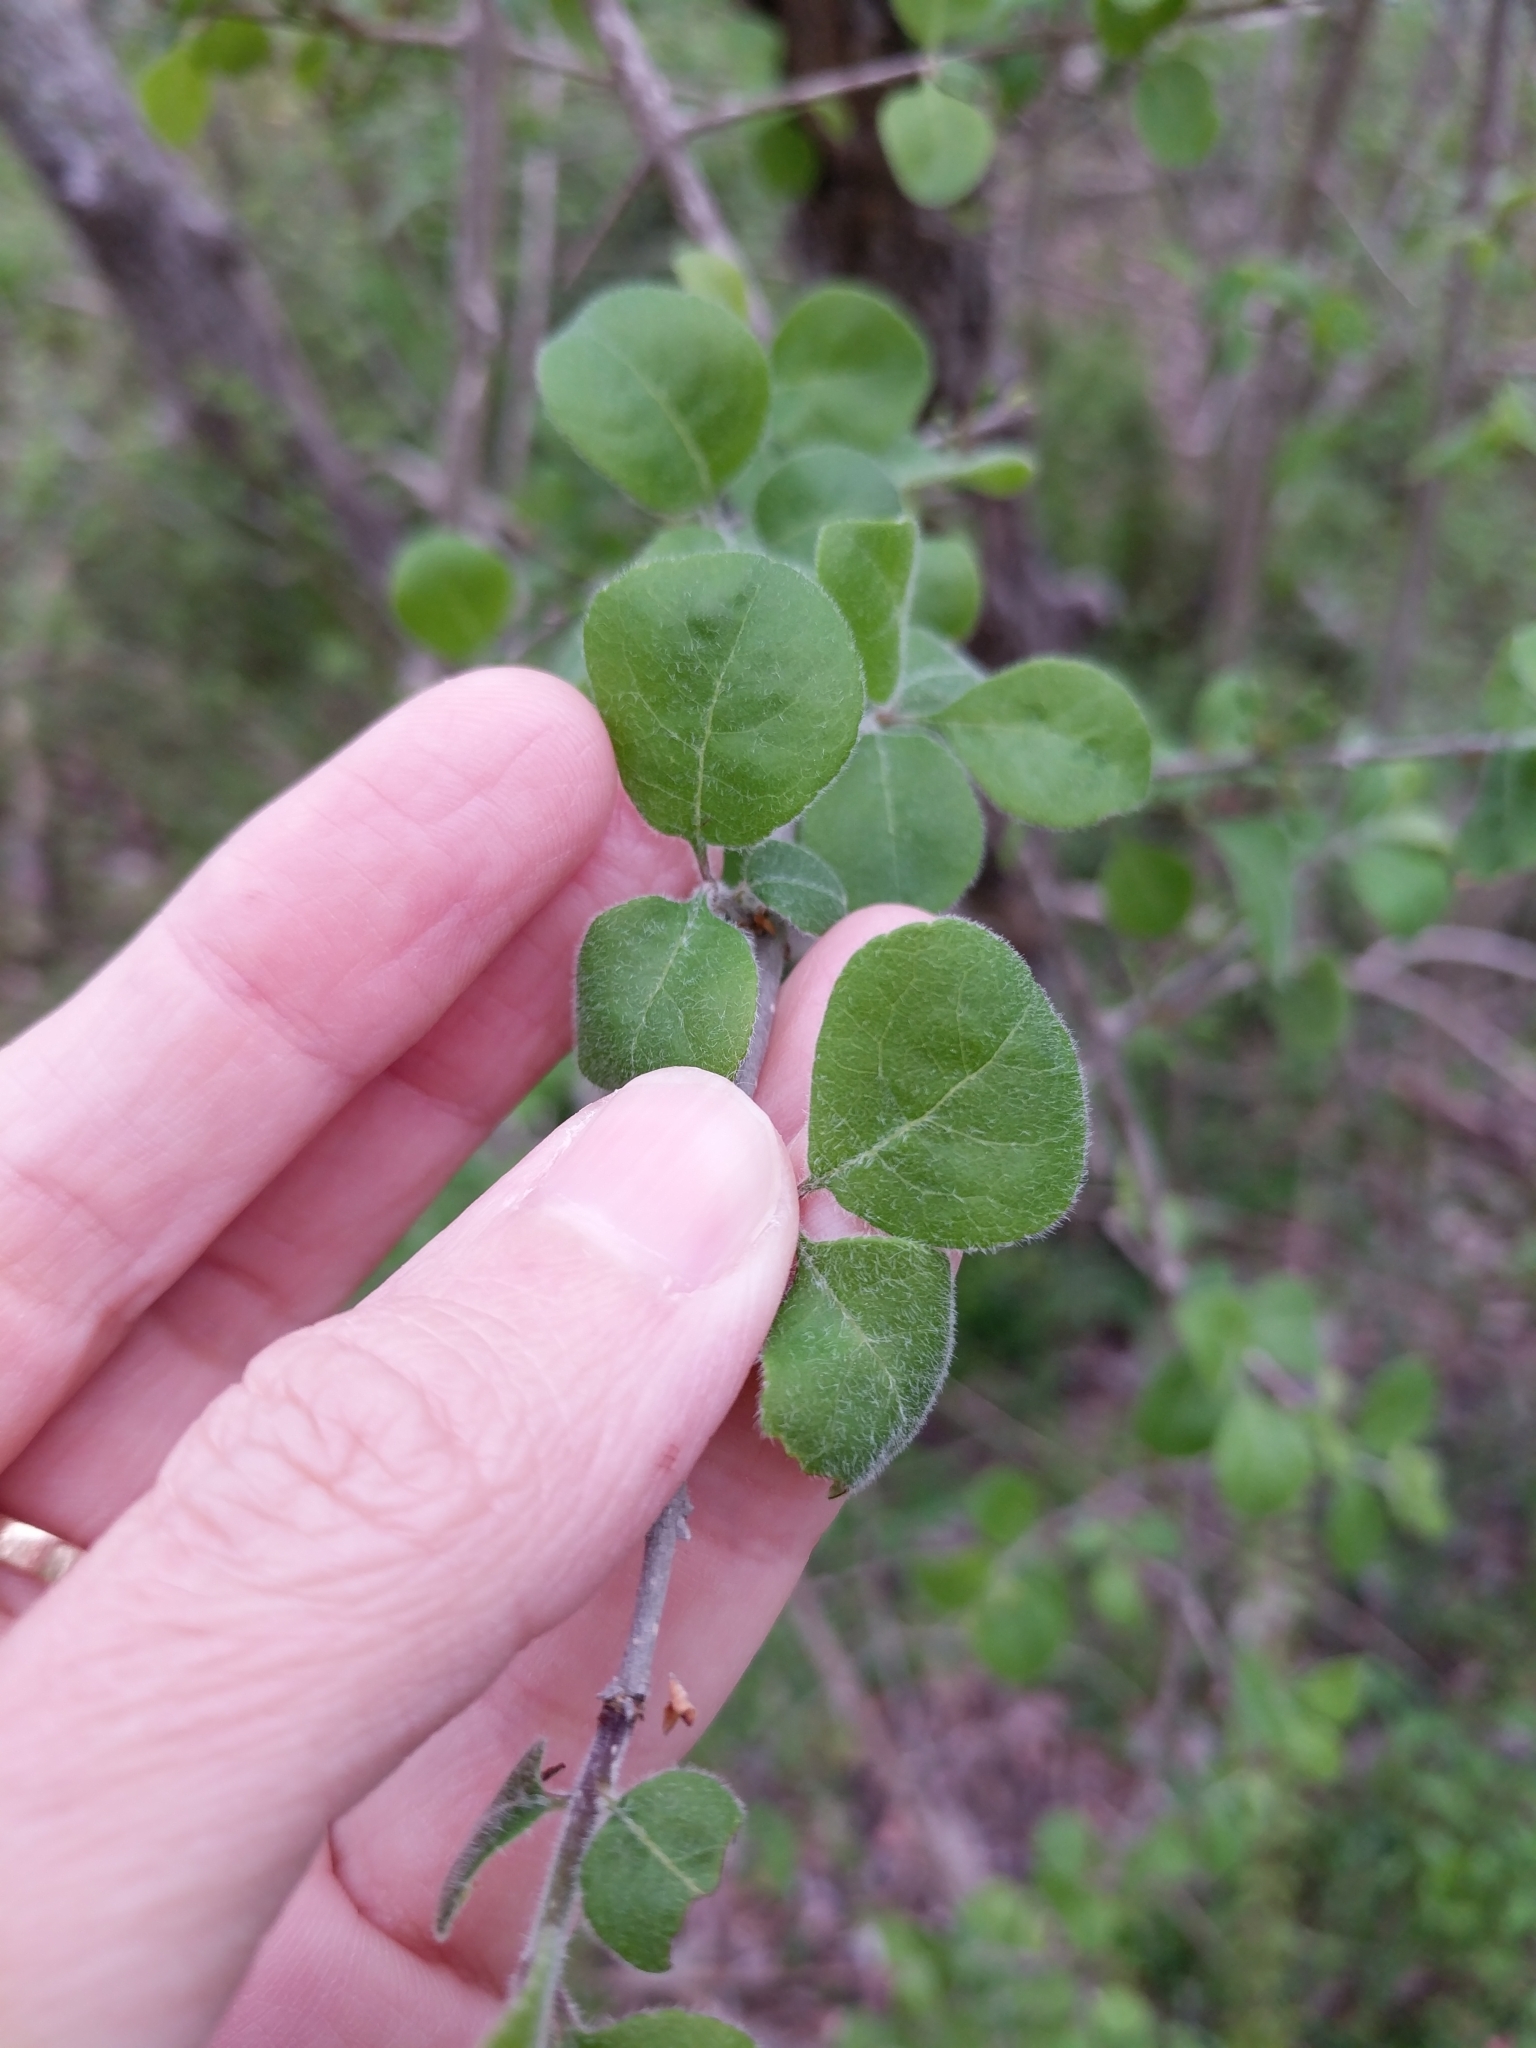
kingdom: Plantae
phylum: Tracheophyta
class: Magnoliopsida
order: Lamiales
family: Oleaceae
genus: Forestiera
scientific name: Forestiera pubescens
